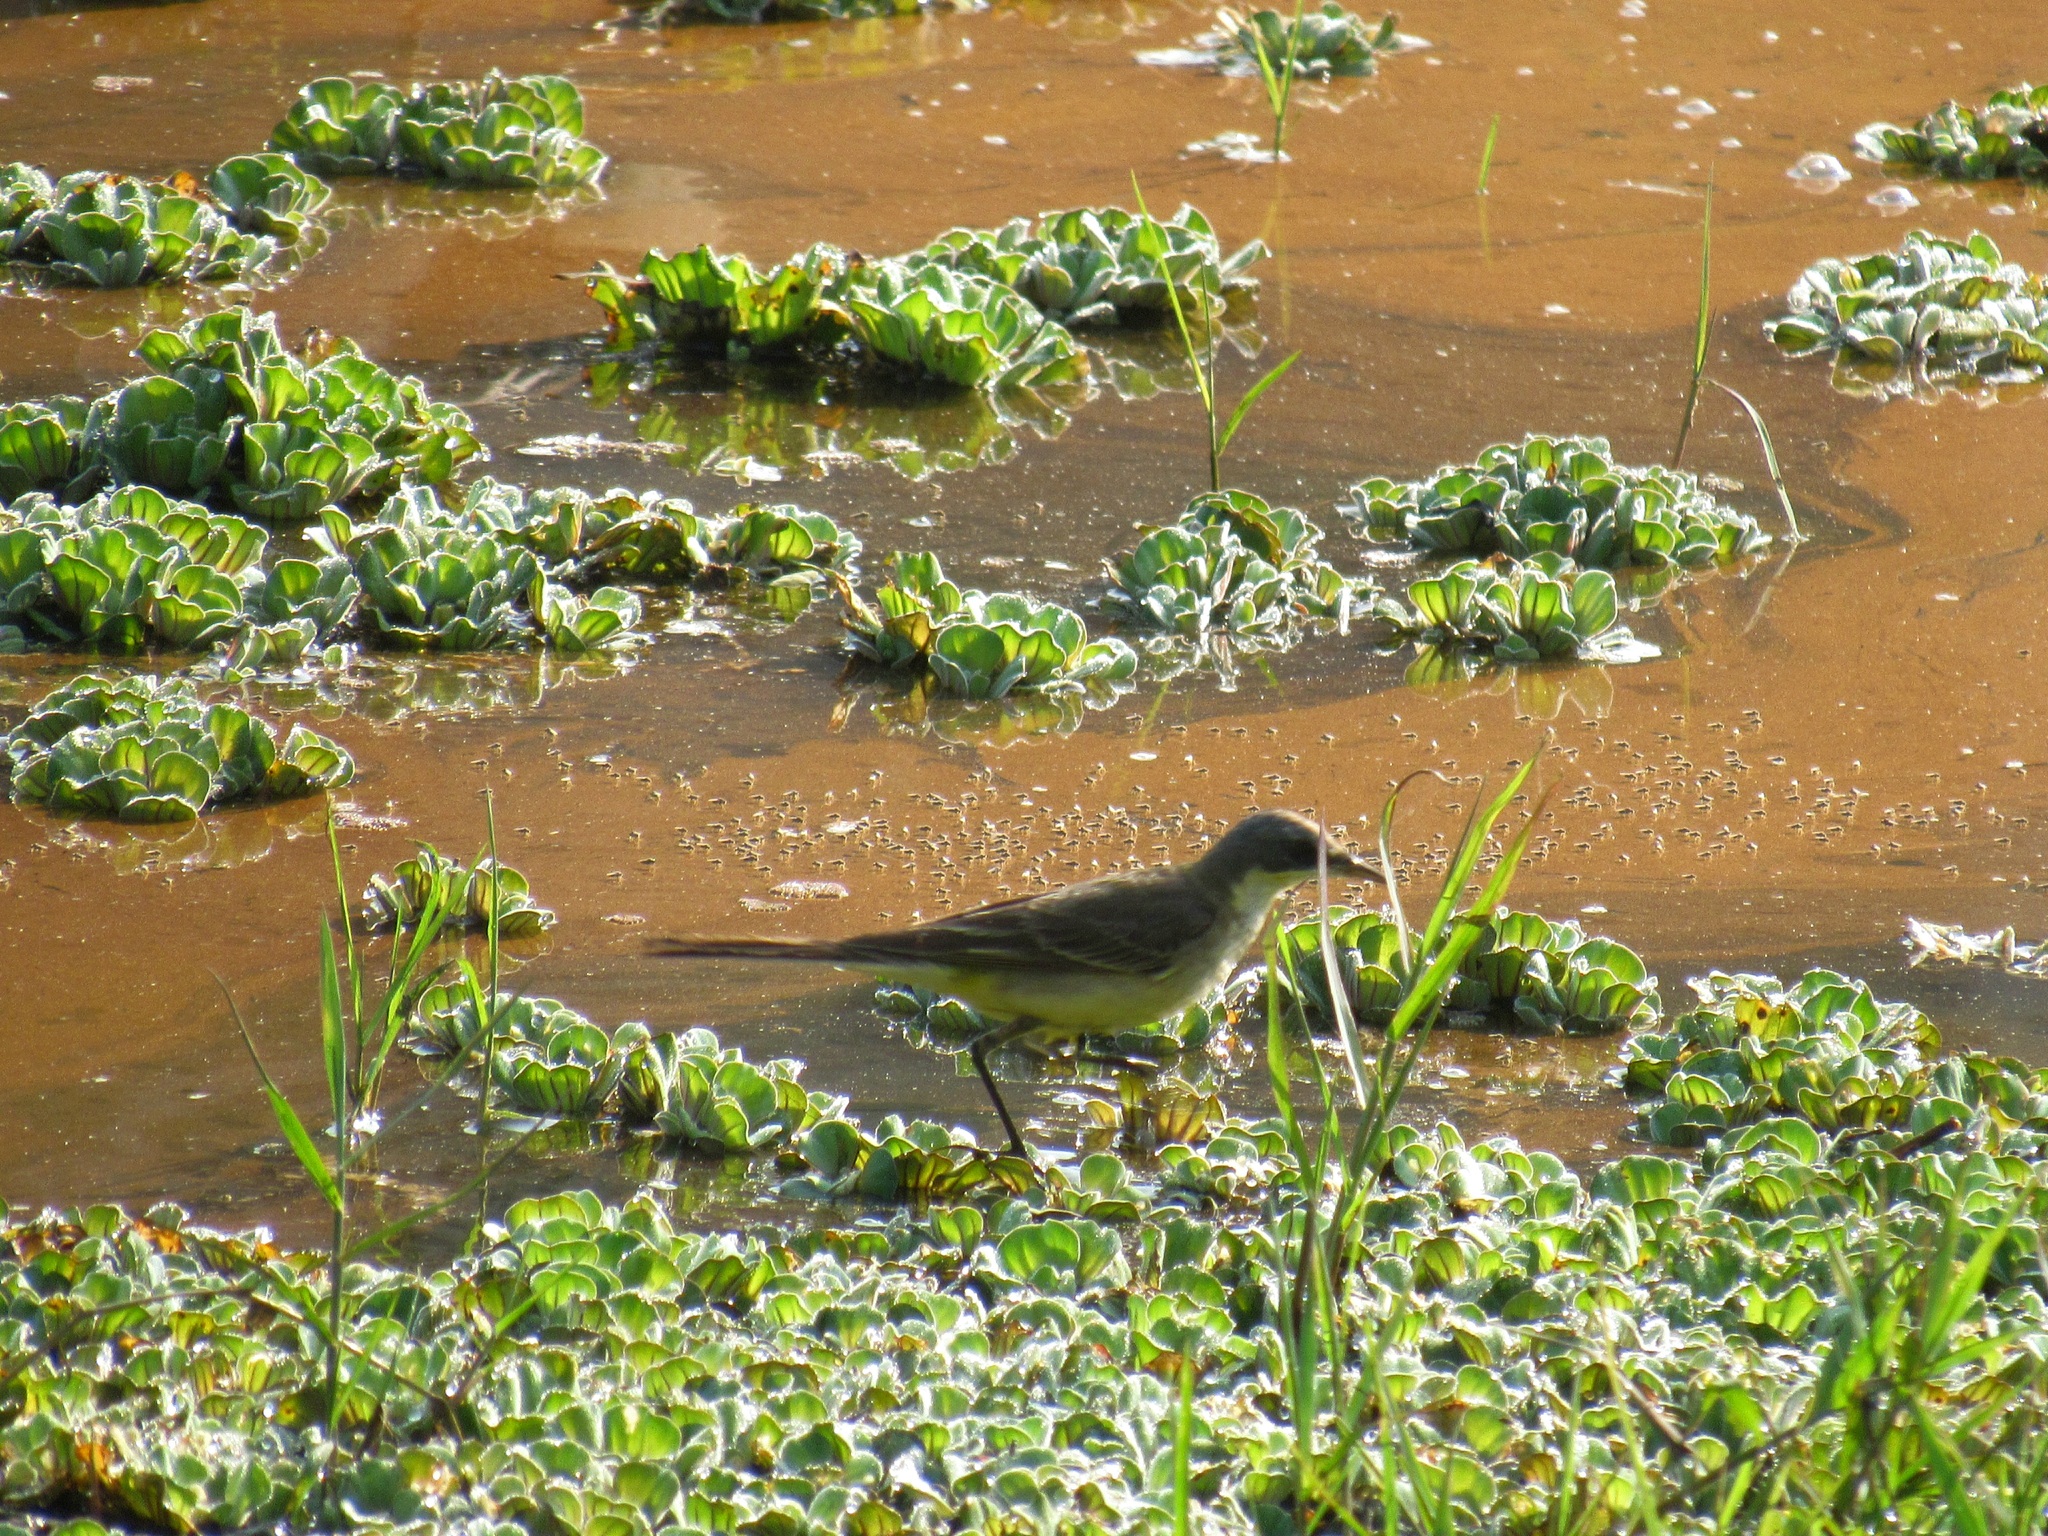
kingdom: Animalia
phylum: Chordata
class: Aves
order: Passeriformes
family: Motacillidae
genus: Motacilla
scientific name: Motacilla flava
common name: Western yellow wagtail
